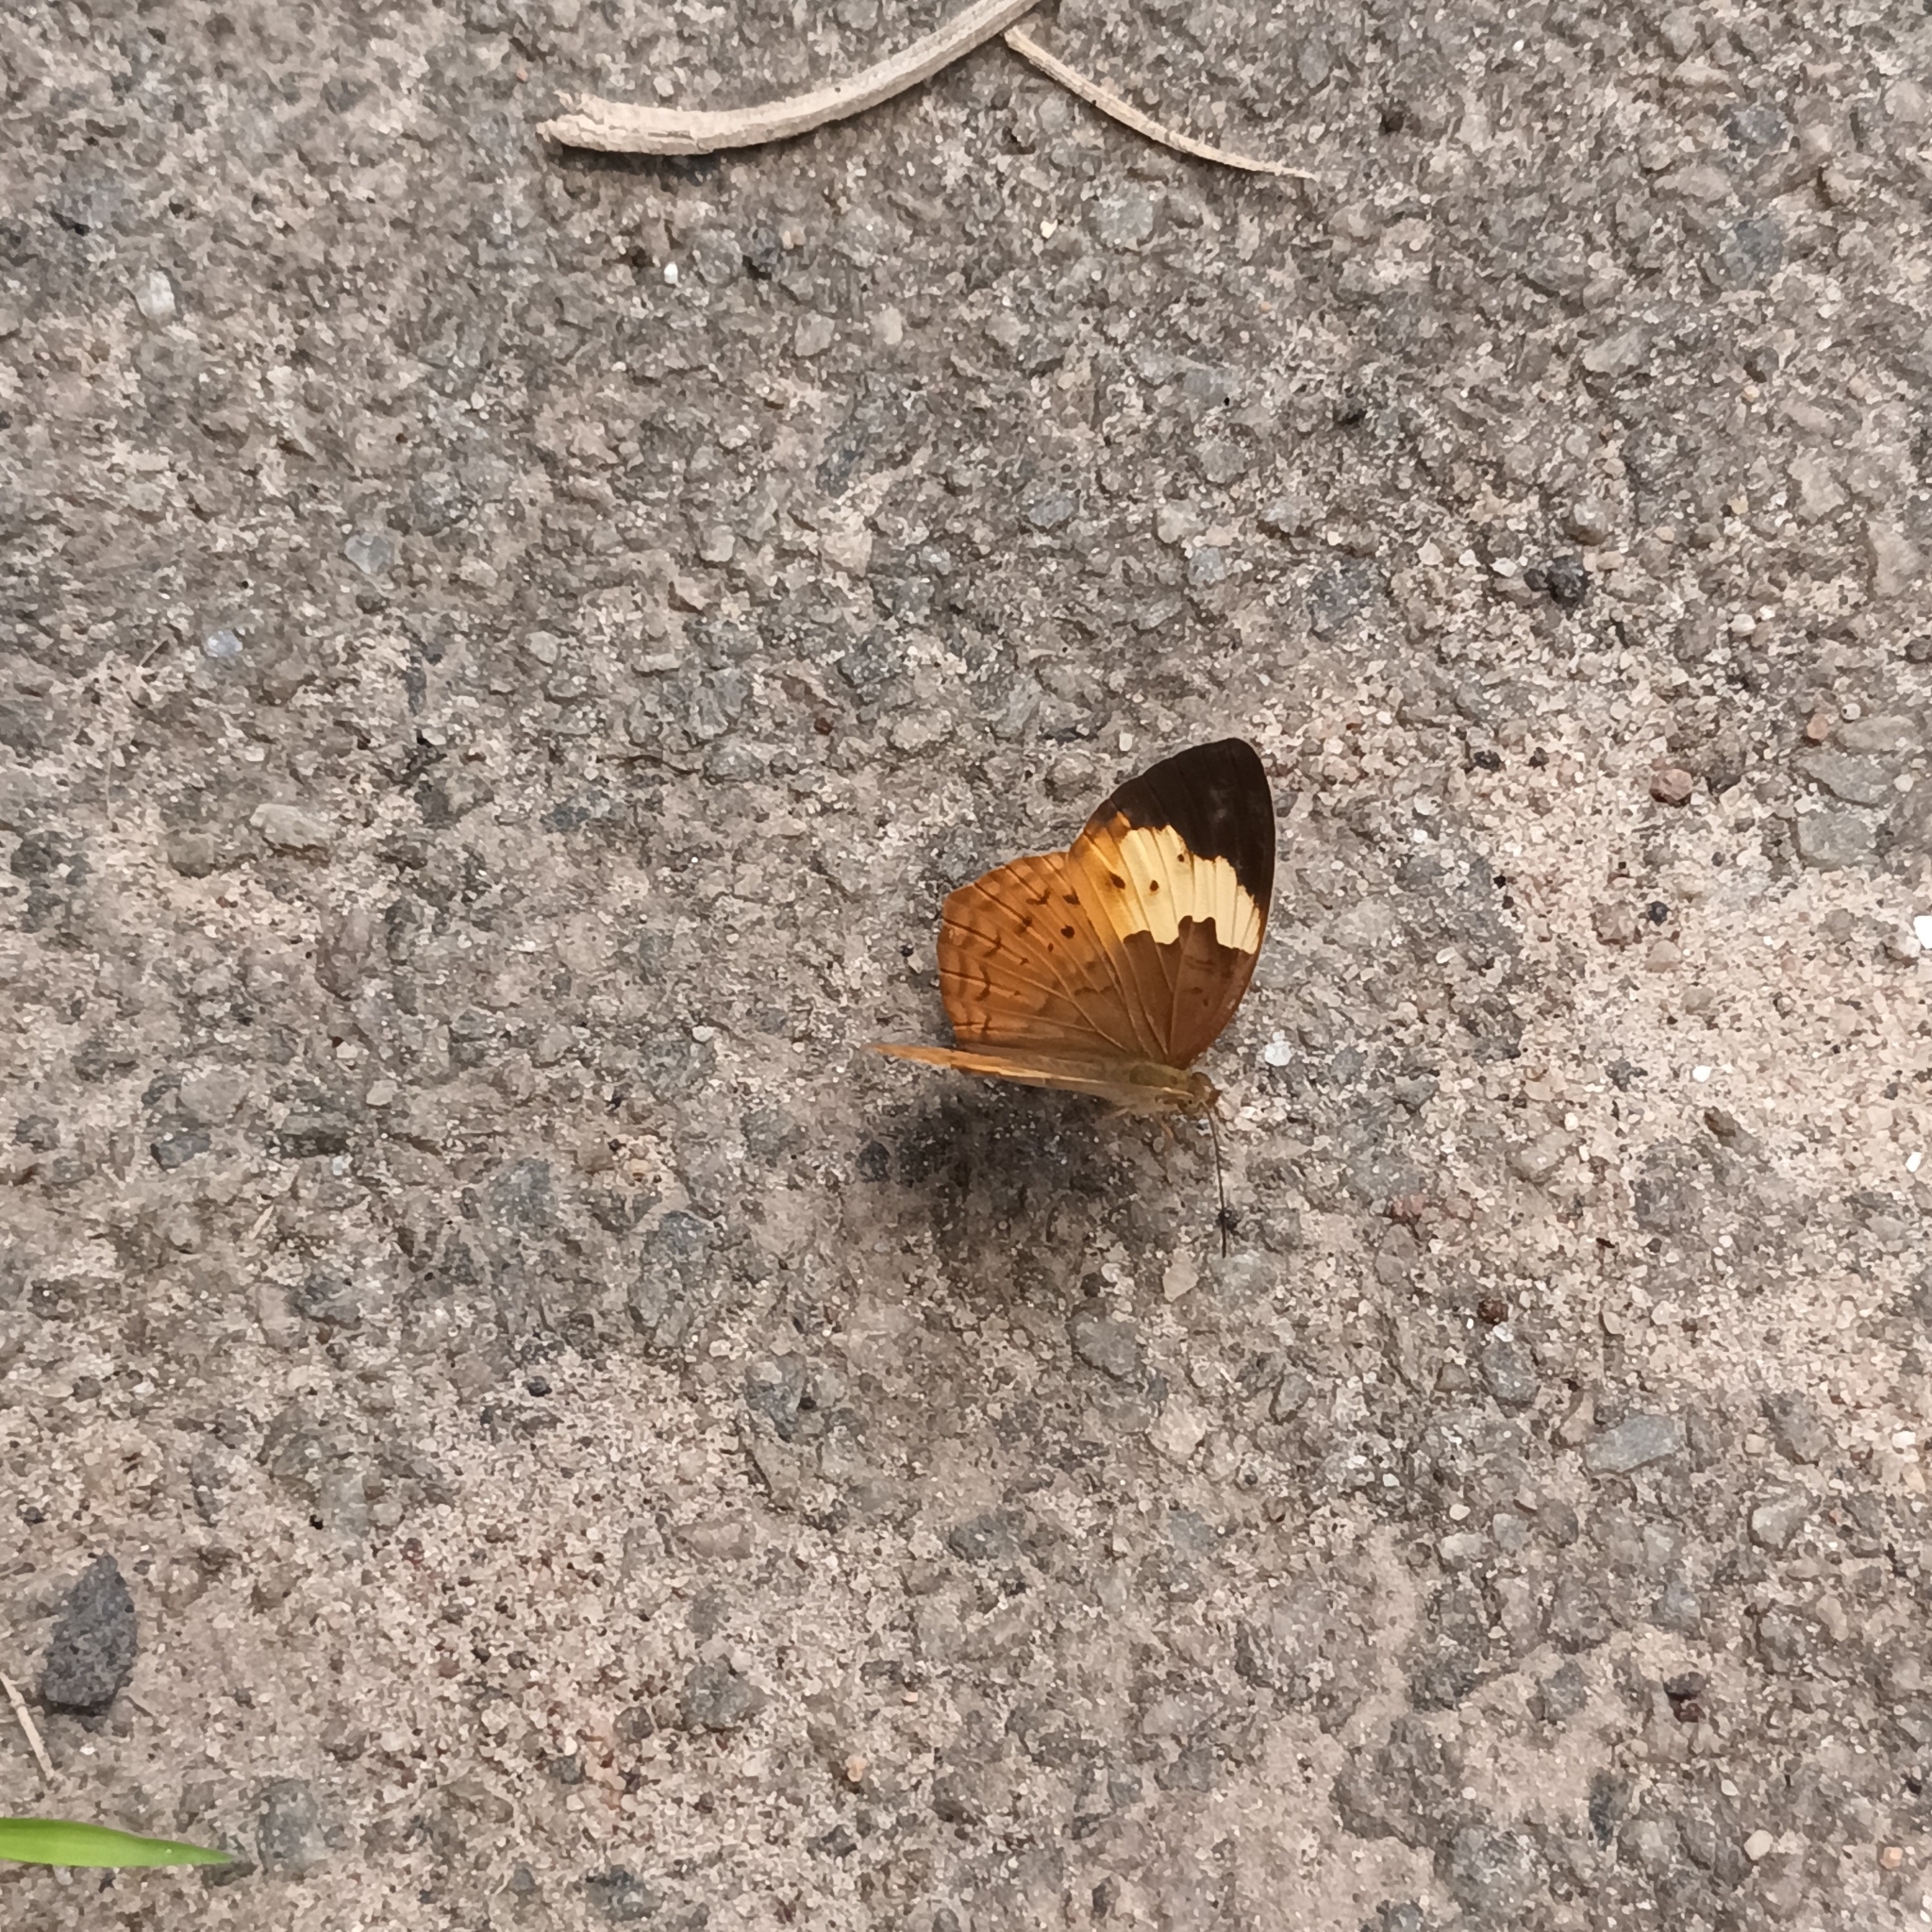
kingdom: Animalia
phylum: Arthropoda
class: Insecta
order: Lepidoptera
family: Nymphalidae
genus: Cupha
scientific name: Cupha erymanthis
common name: Rustic
